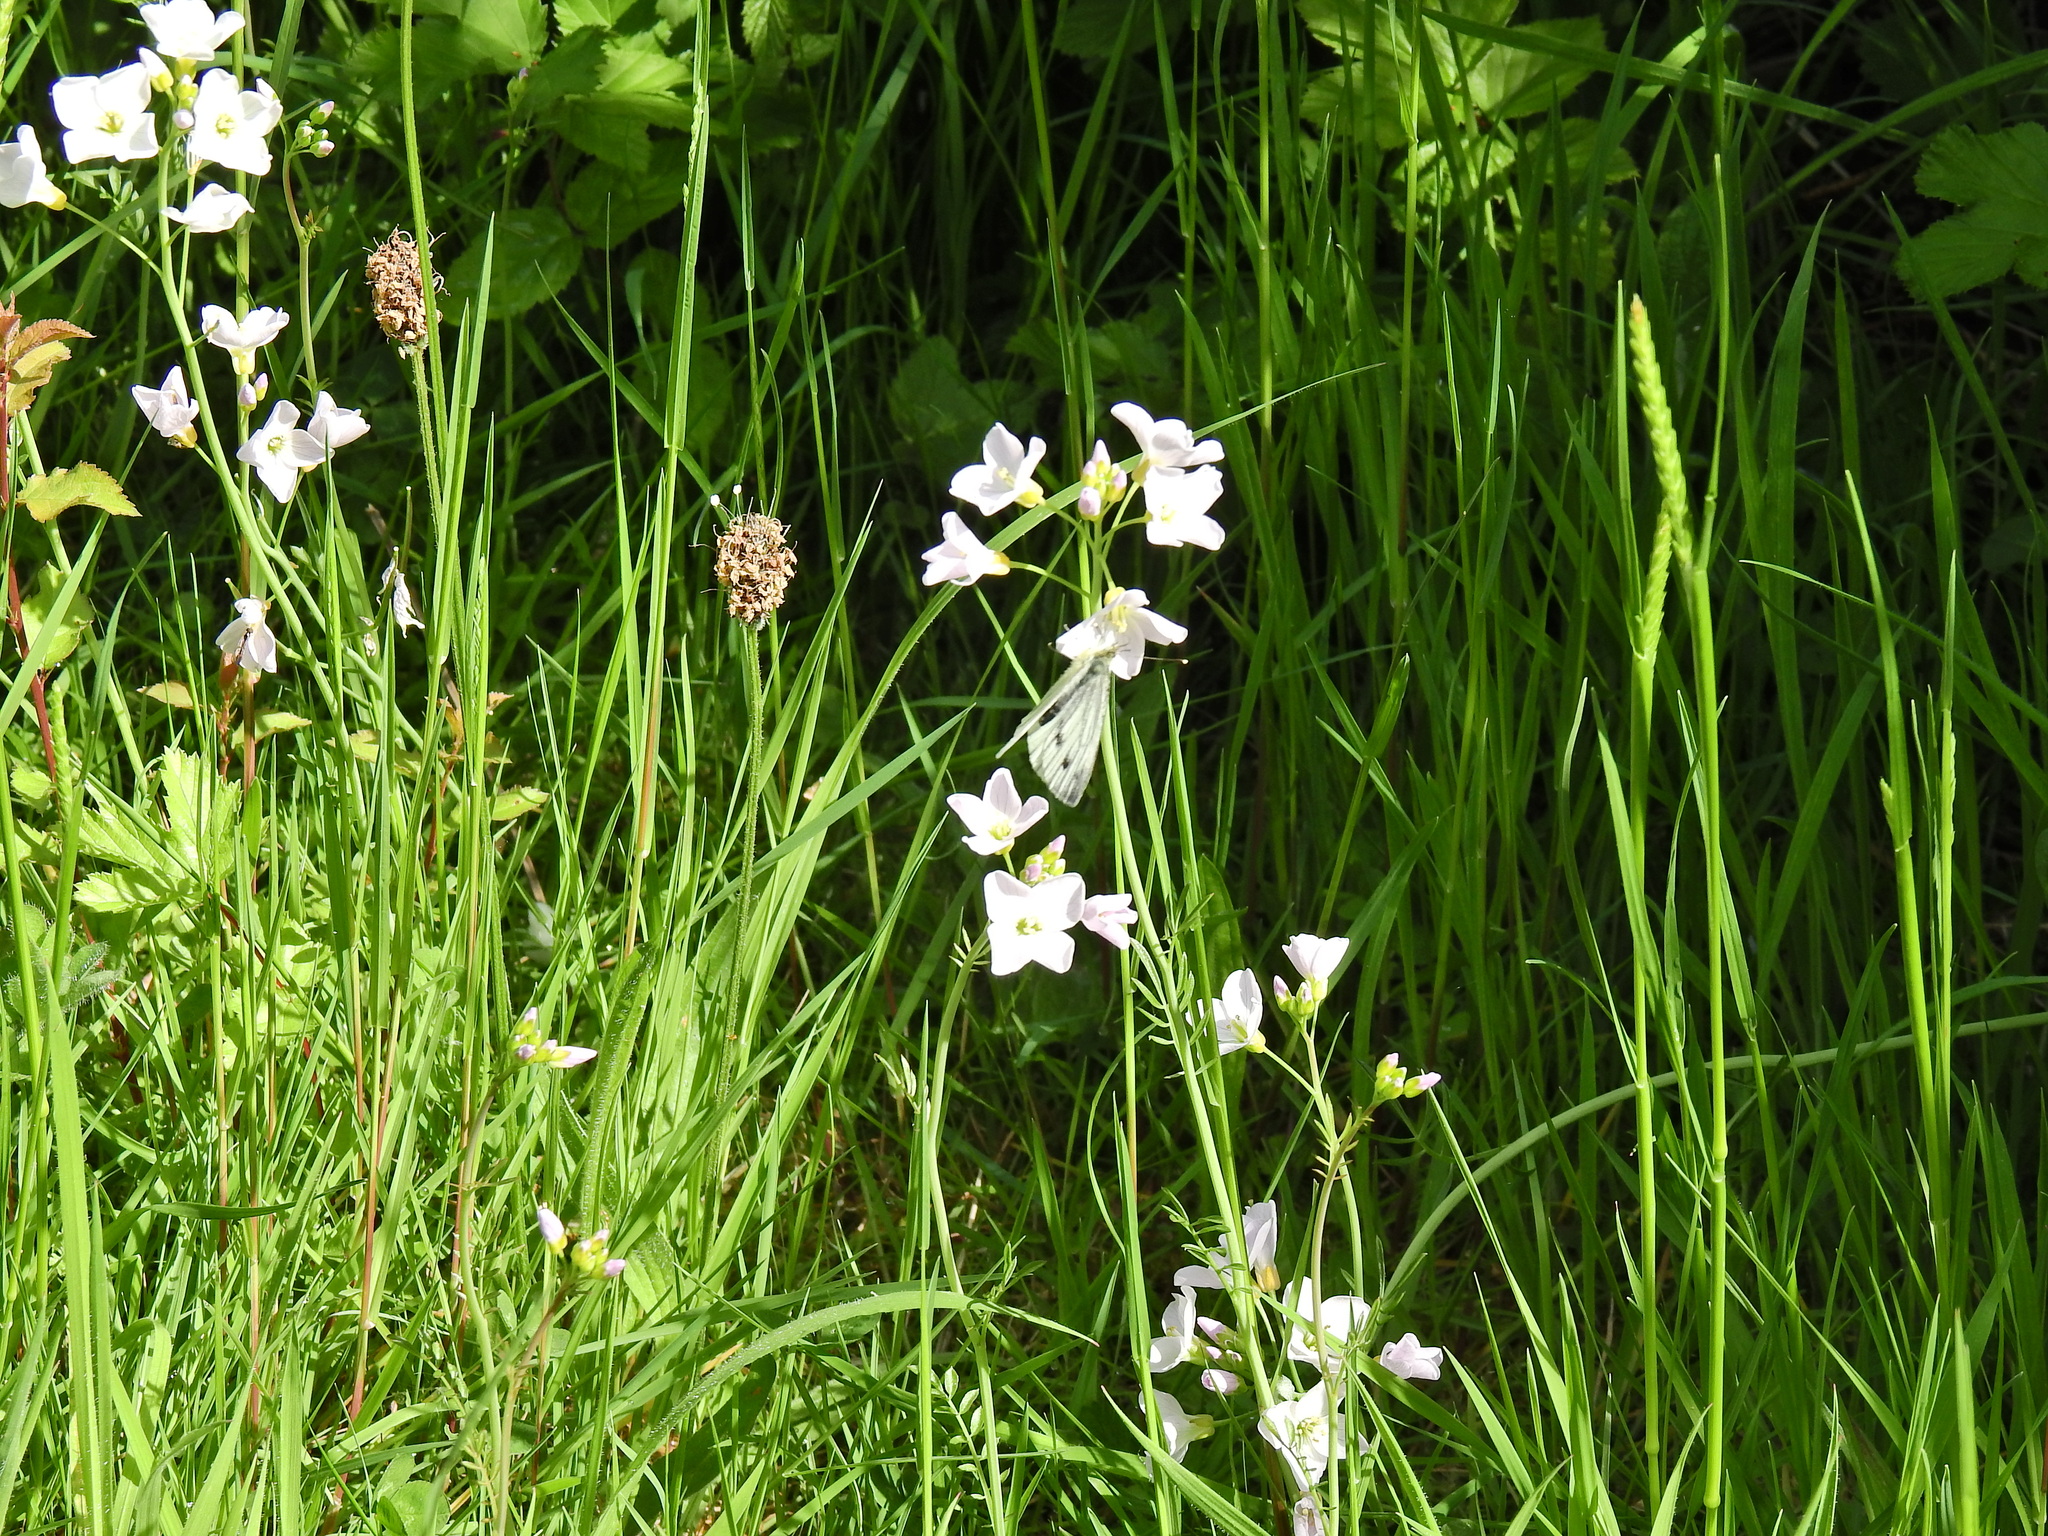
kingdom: Animalia
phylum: Arthropoda
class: Insecta
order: Lepidoptera
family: Pieridae
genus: Pieris
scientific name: Pieris napi
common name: Green-veined white
